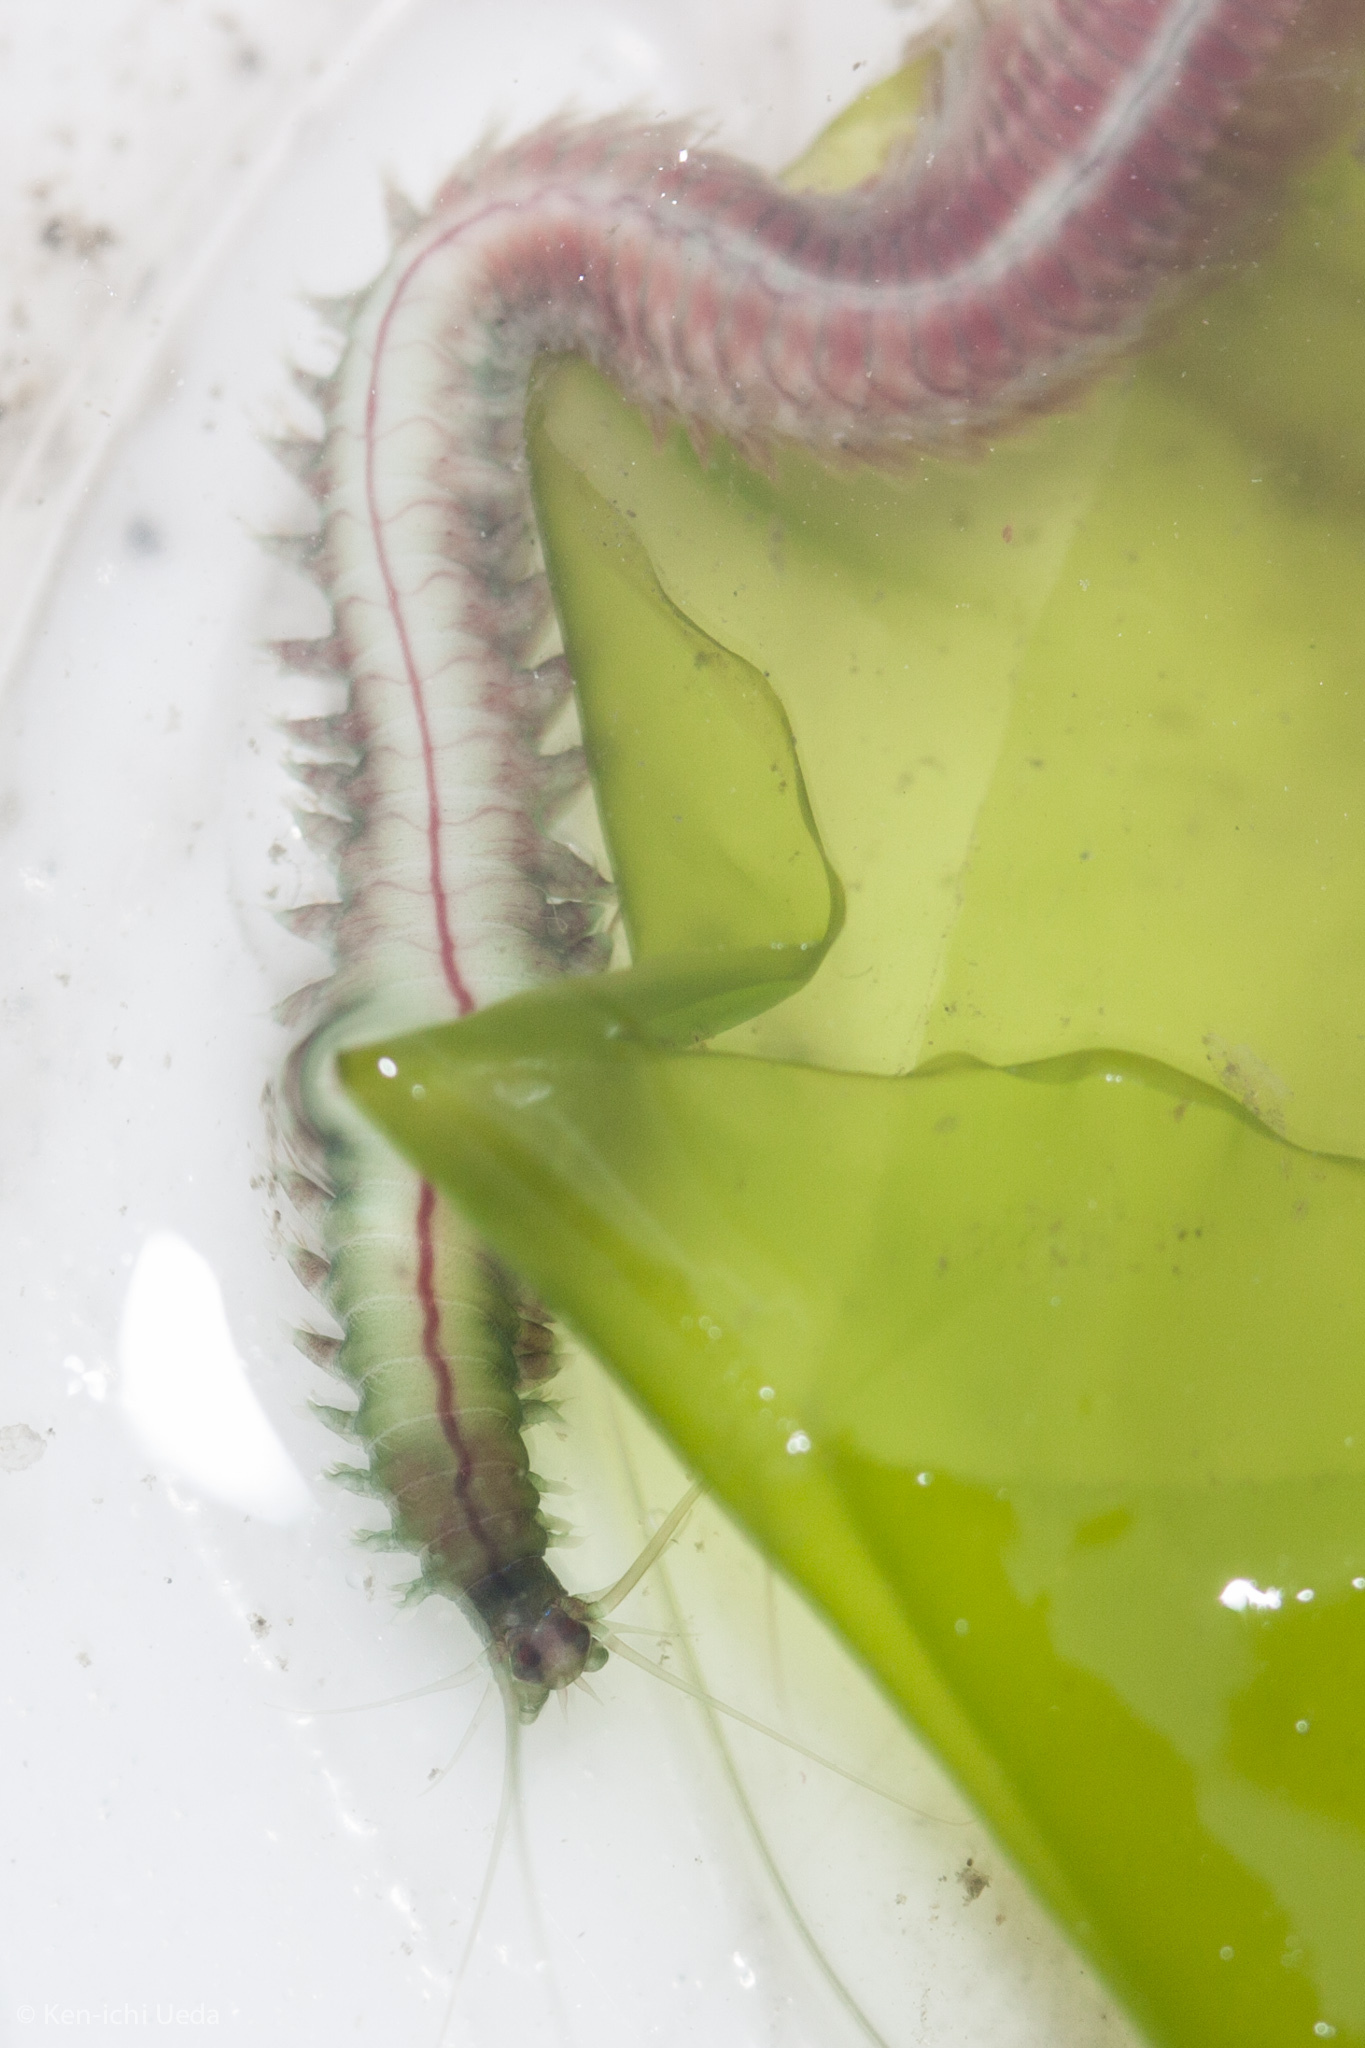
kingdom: Animalia
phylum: Annelida
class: Polychaeta
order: Phyllodocida
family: Nereididae
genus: Platynereis
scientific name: Platynereis bicanaliculata
